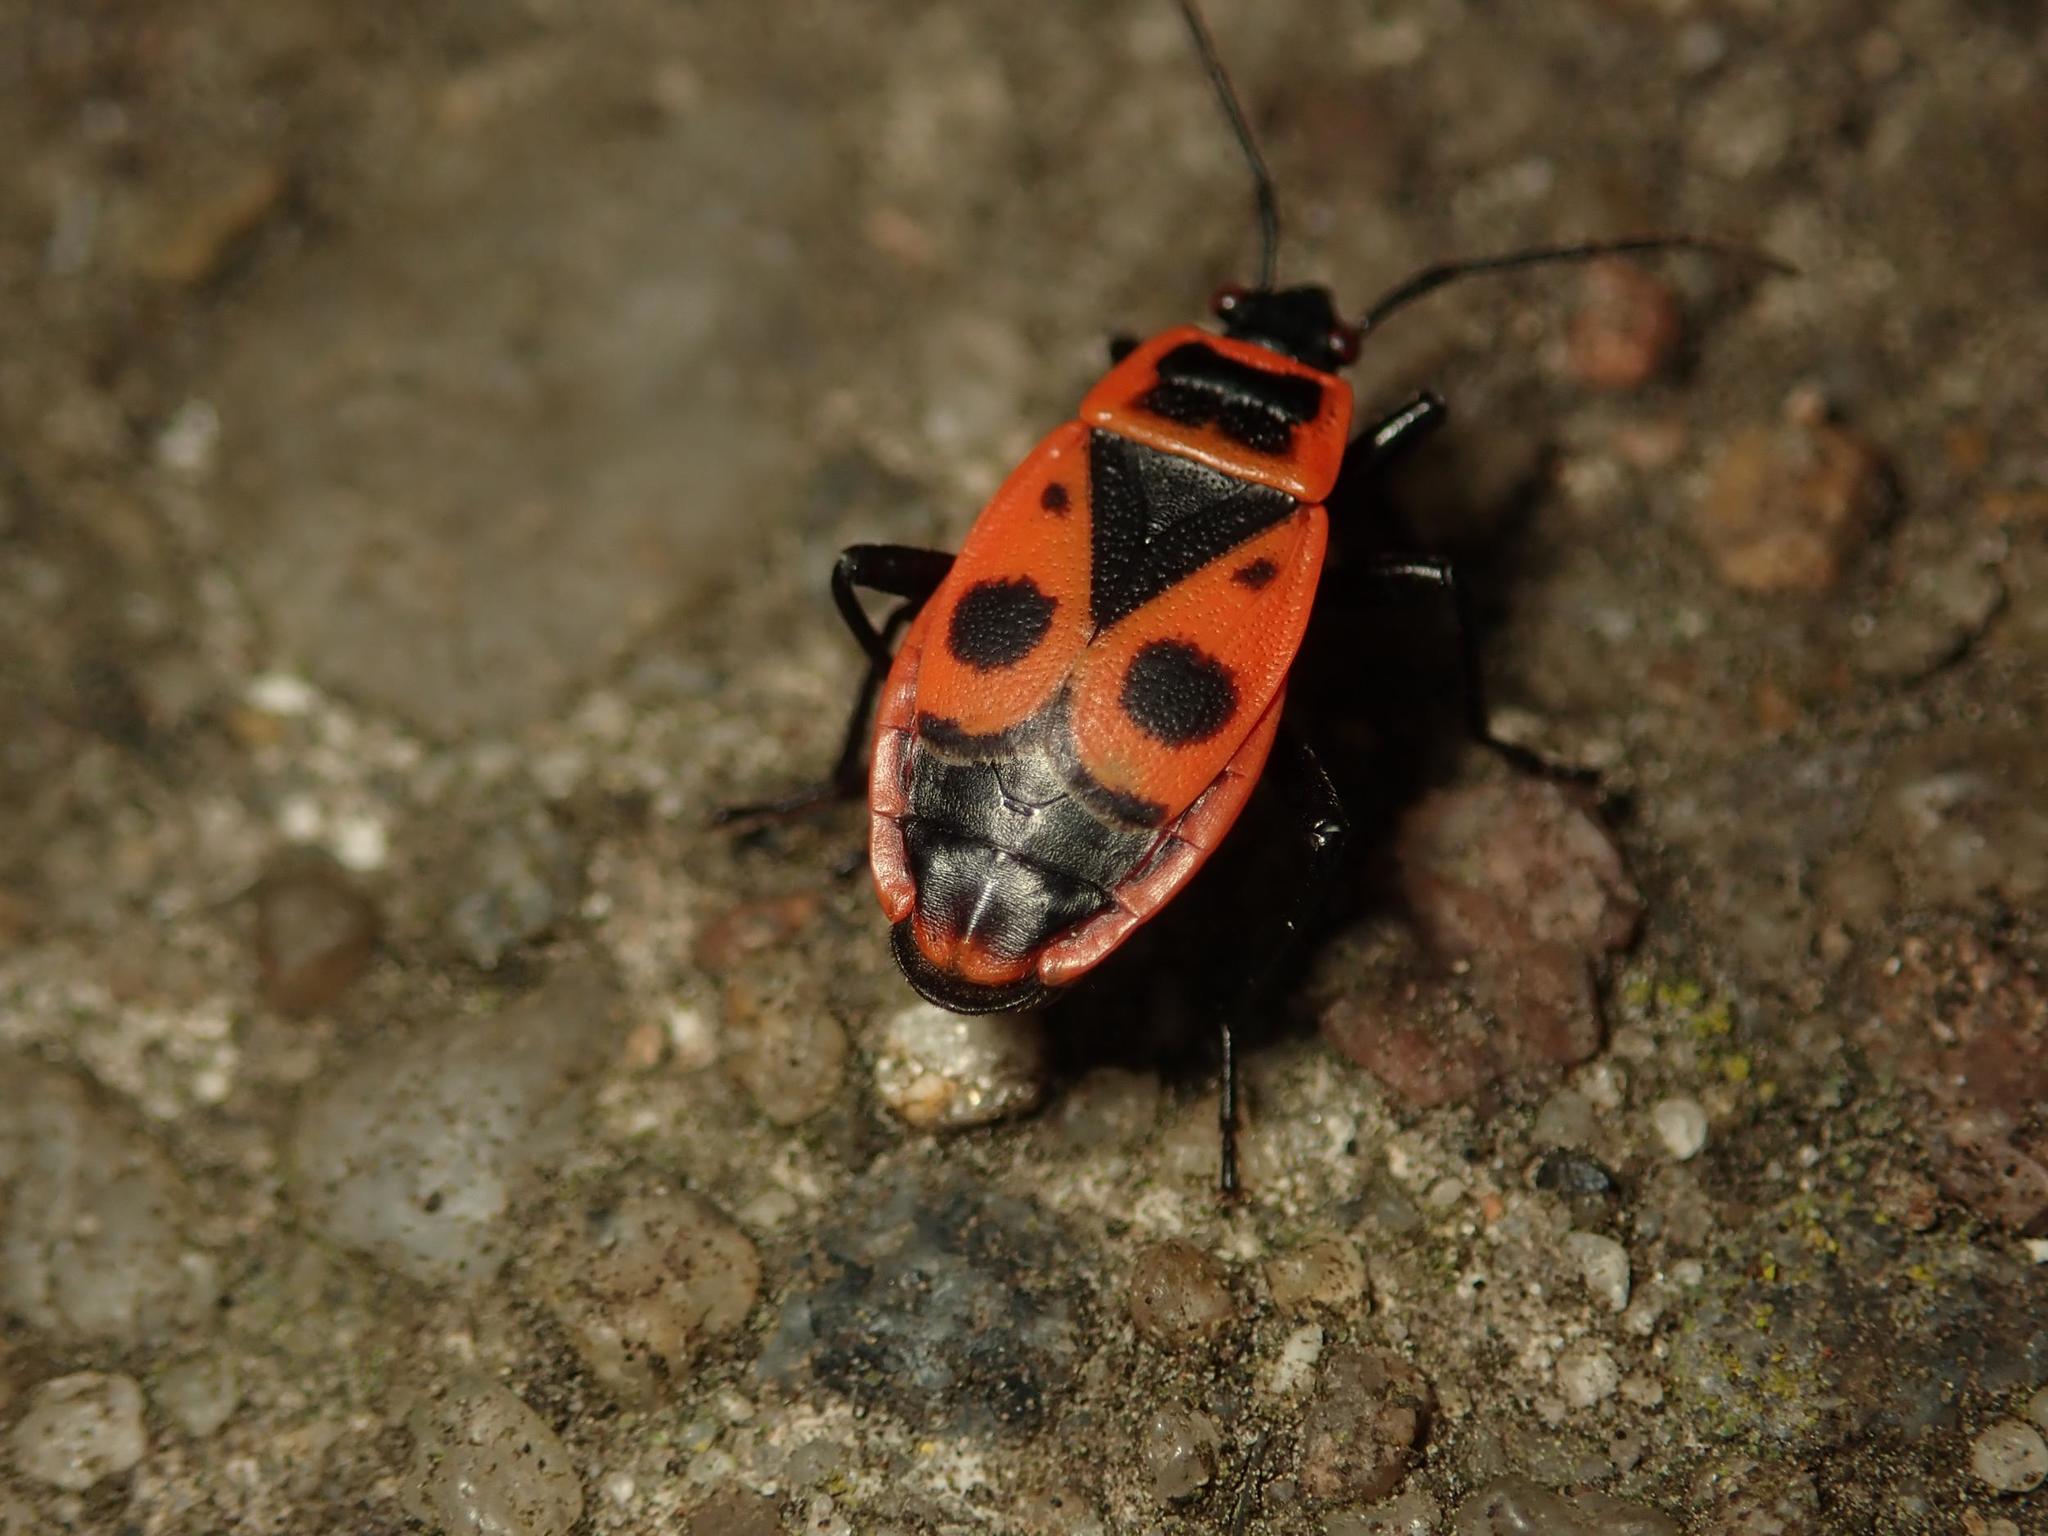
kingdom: Animalia
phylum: Arthropoda
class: Insecta
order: Hemiptera
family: Pyrrhocoridae
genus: Pyrrhocoris
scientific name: Pyrrhocoris apterus
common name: Firebug
